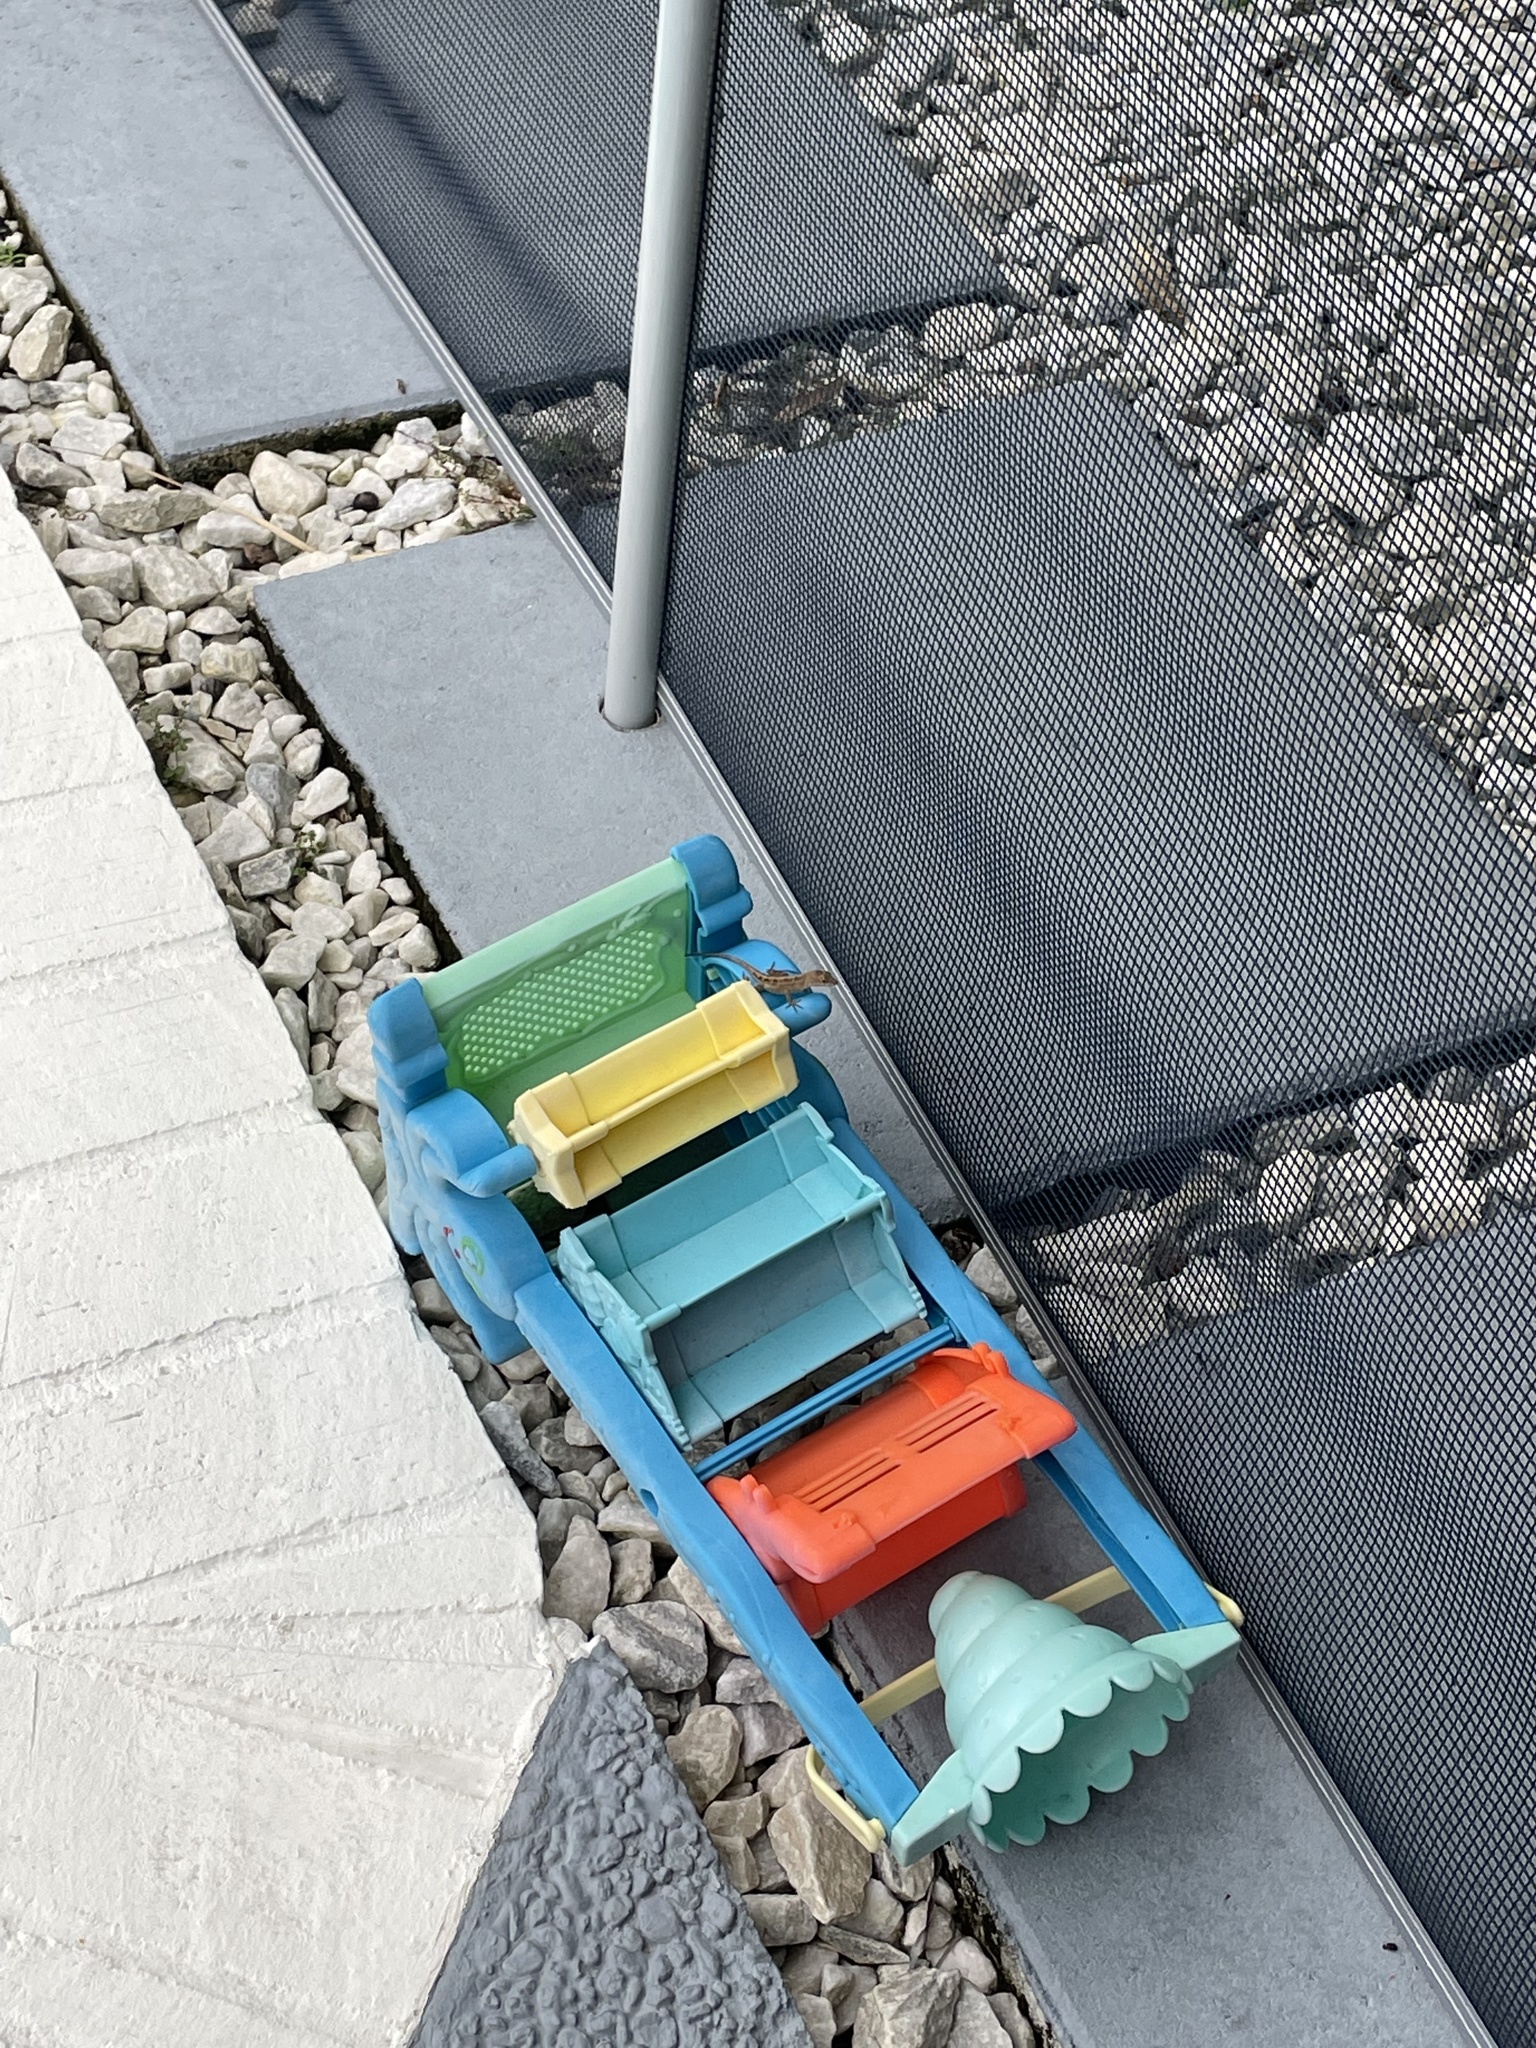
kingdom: Animalia
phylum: Chordata
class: Squamata
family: Dactyloidae
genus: Anolis
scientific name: Anolis sagrei
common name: Brown anole
